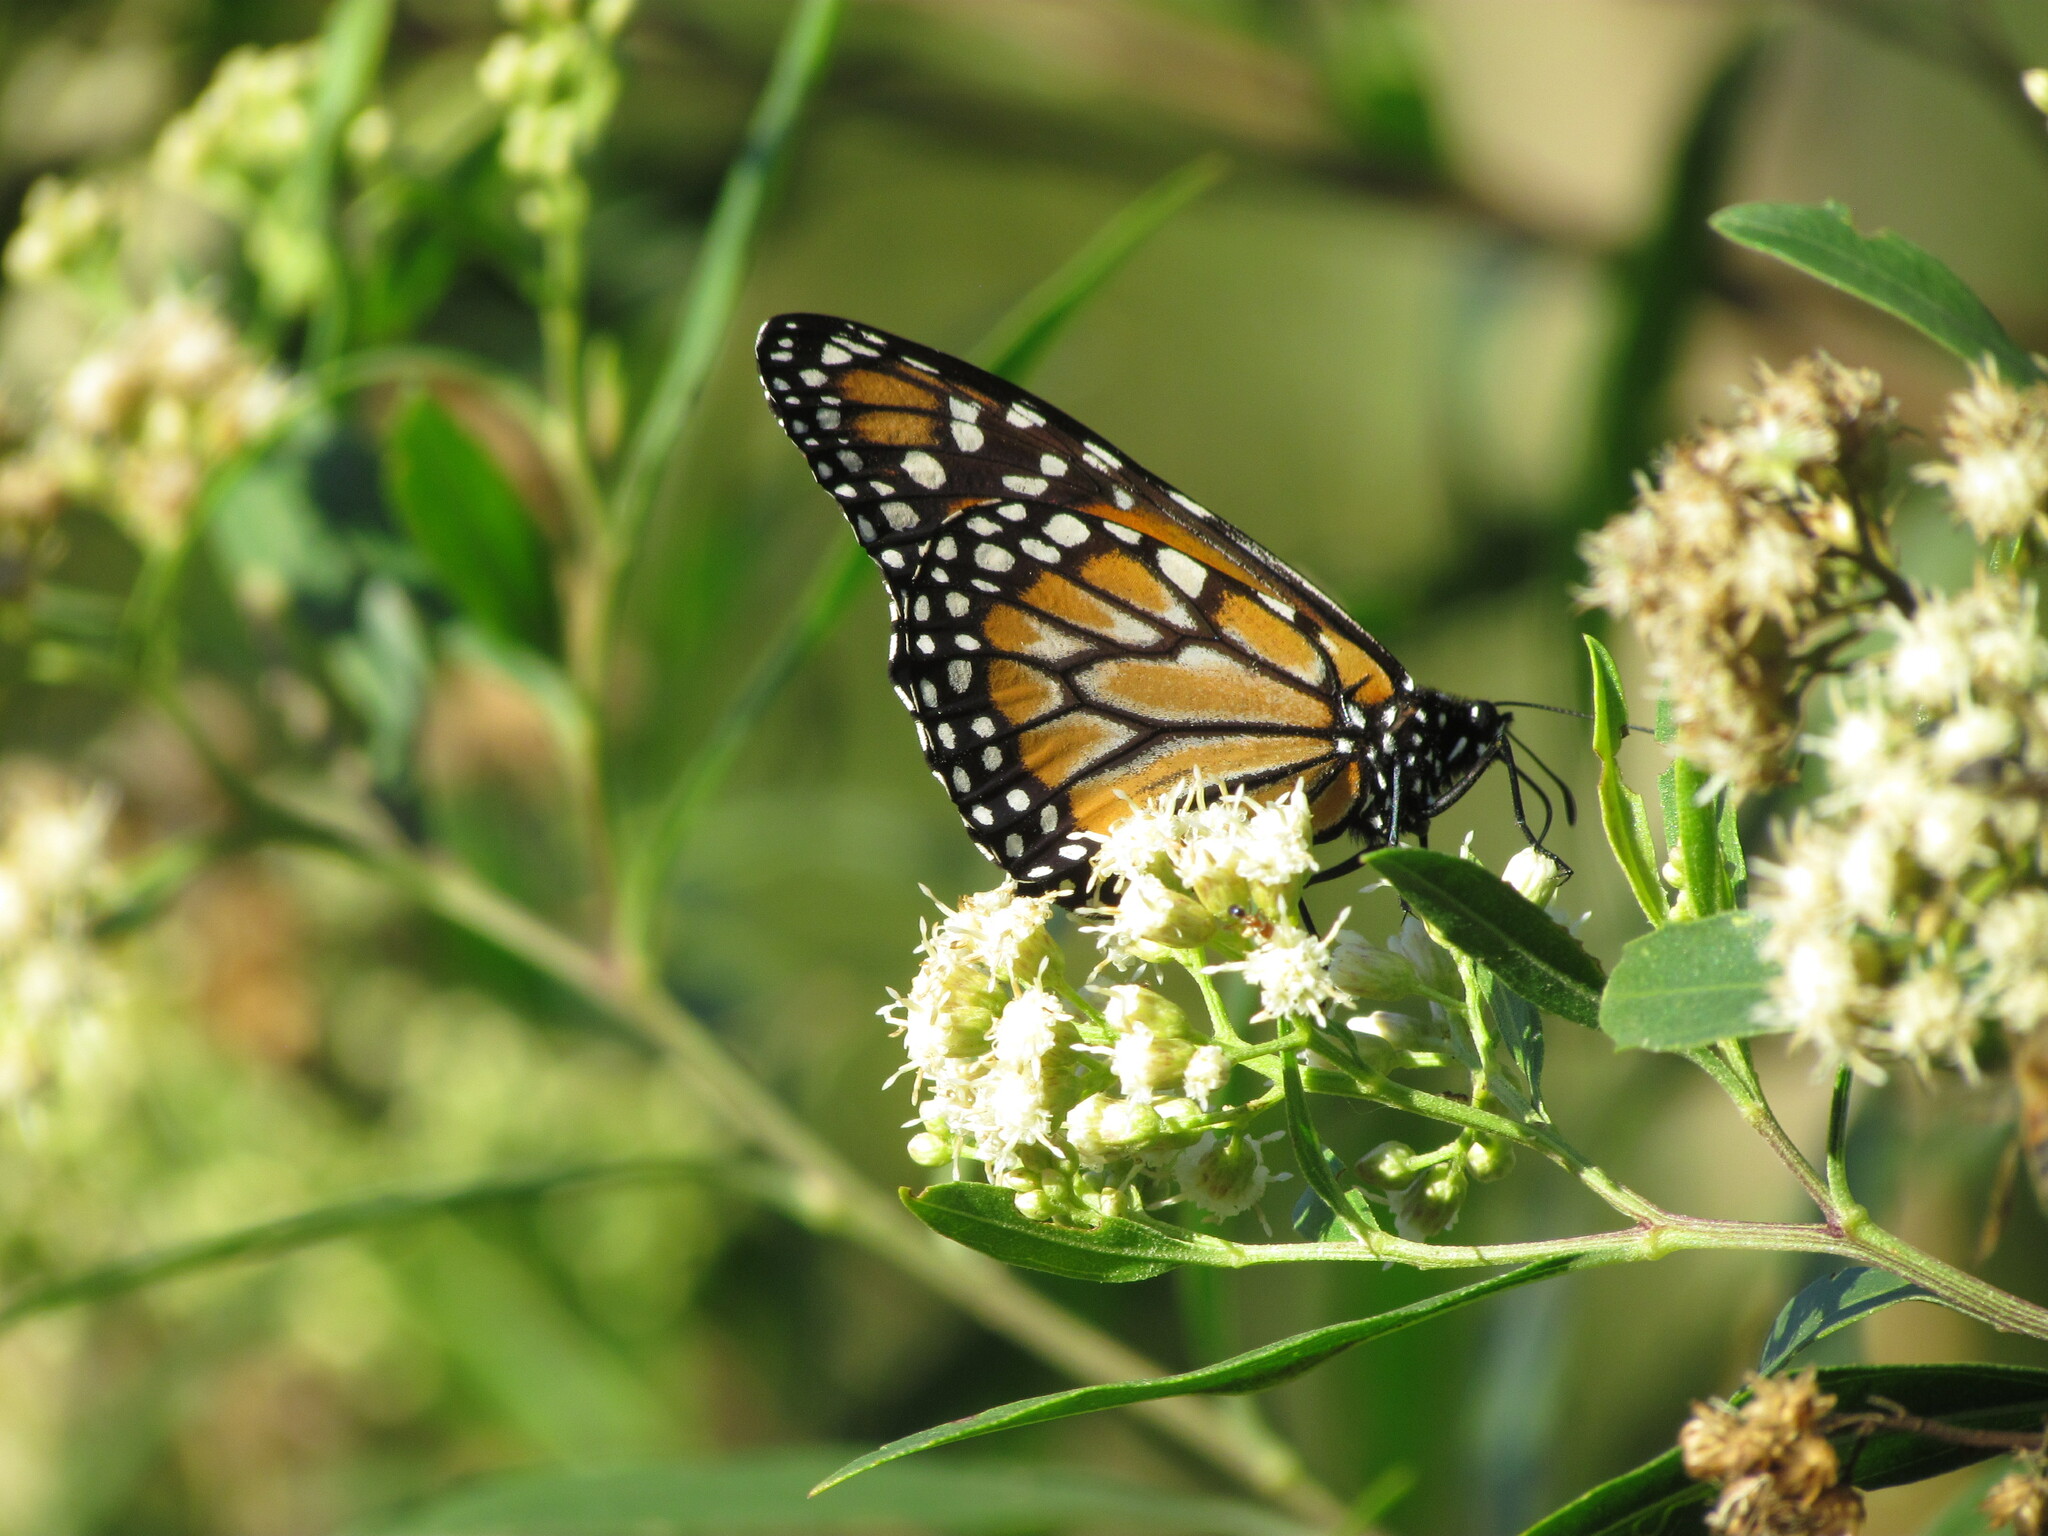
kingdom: Animalia
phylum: Arthropoda
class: Insecta
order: Lepidoptera
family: Nymphalidae
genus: Danaus
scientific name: Danaus erippus
